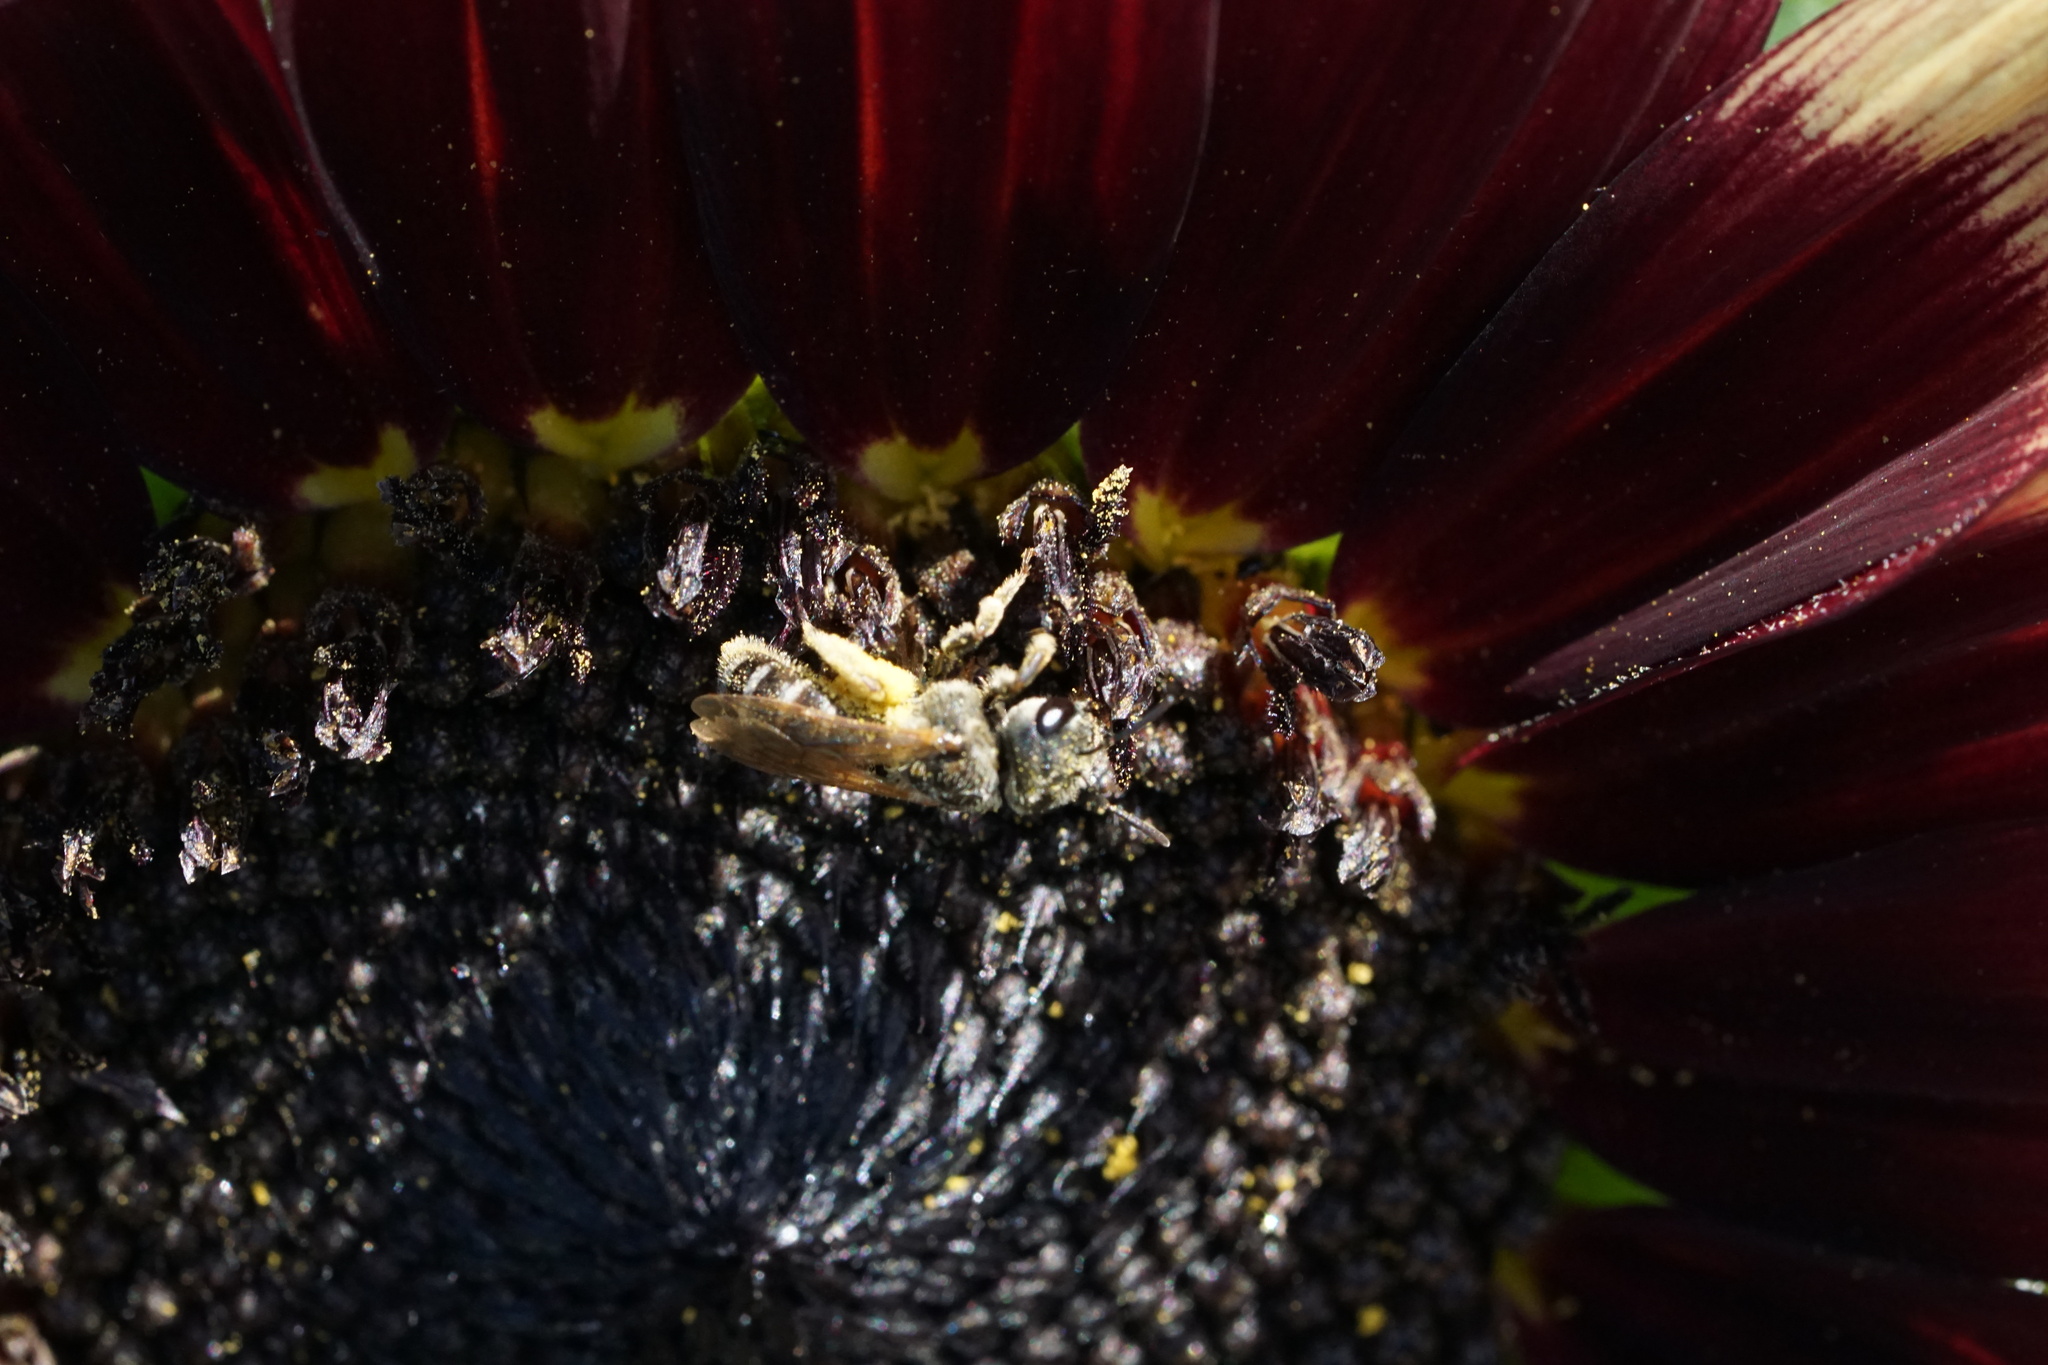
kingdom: Animalia
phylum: Arthropoda
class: Insecta
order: Hymenoptera
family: Halictidae
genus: Halictus
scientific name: Halictus ligatus
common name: Ligated furrow bee
